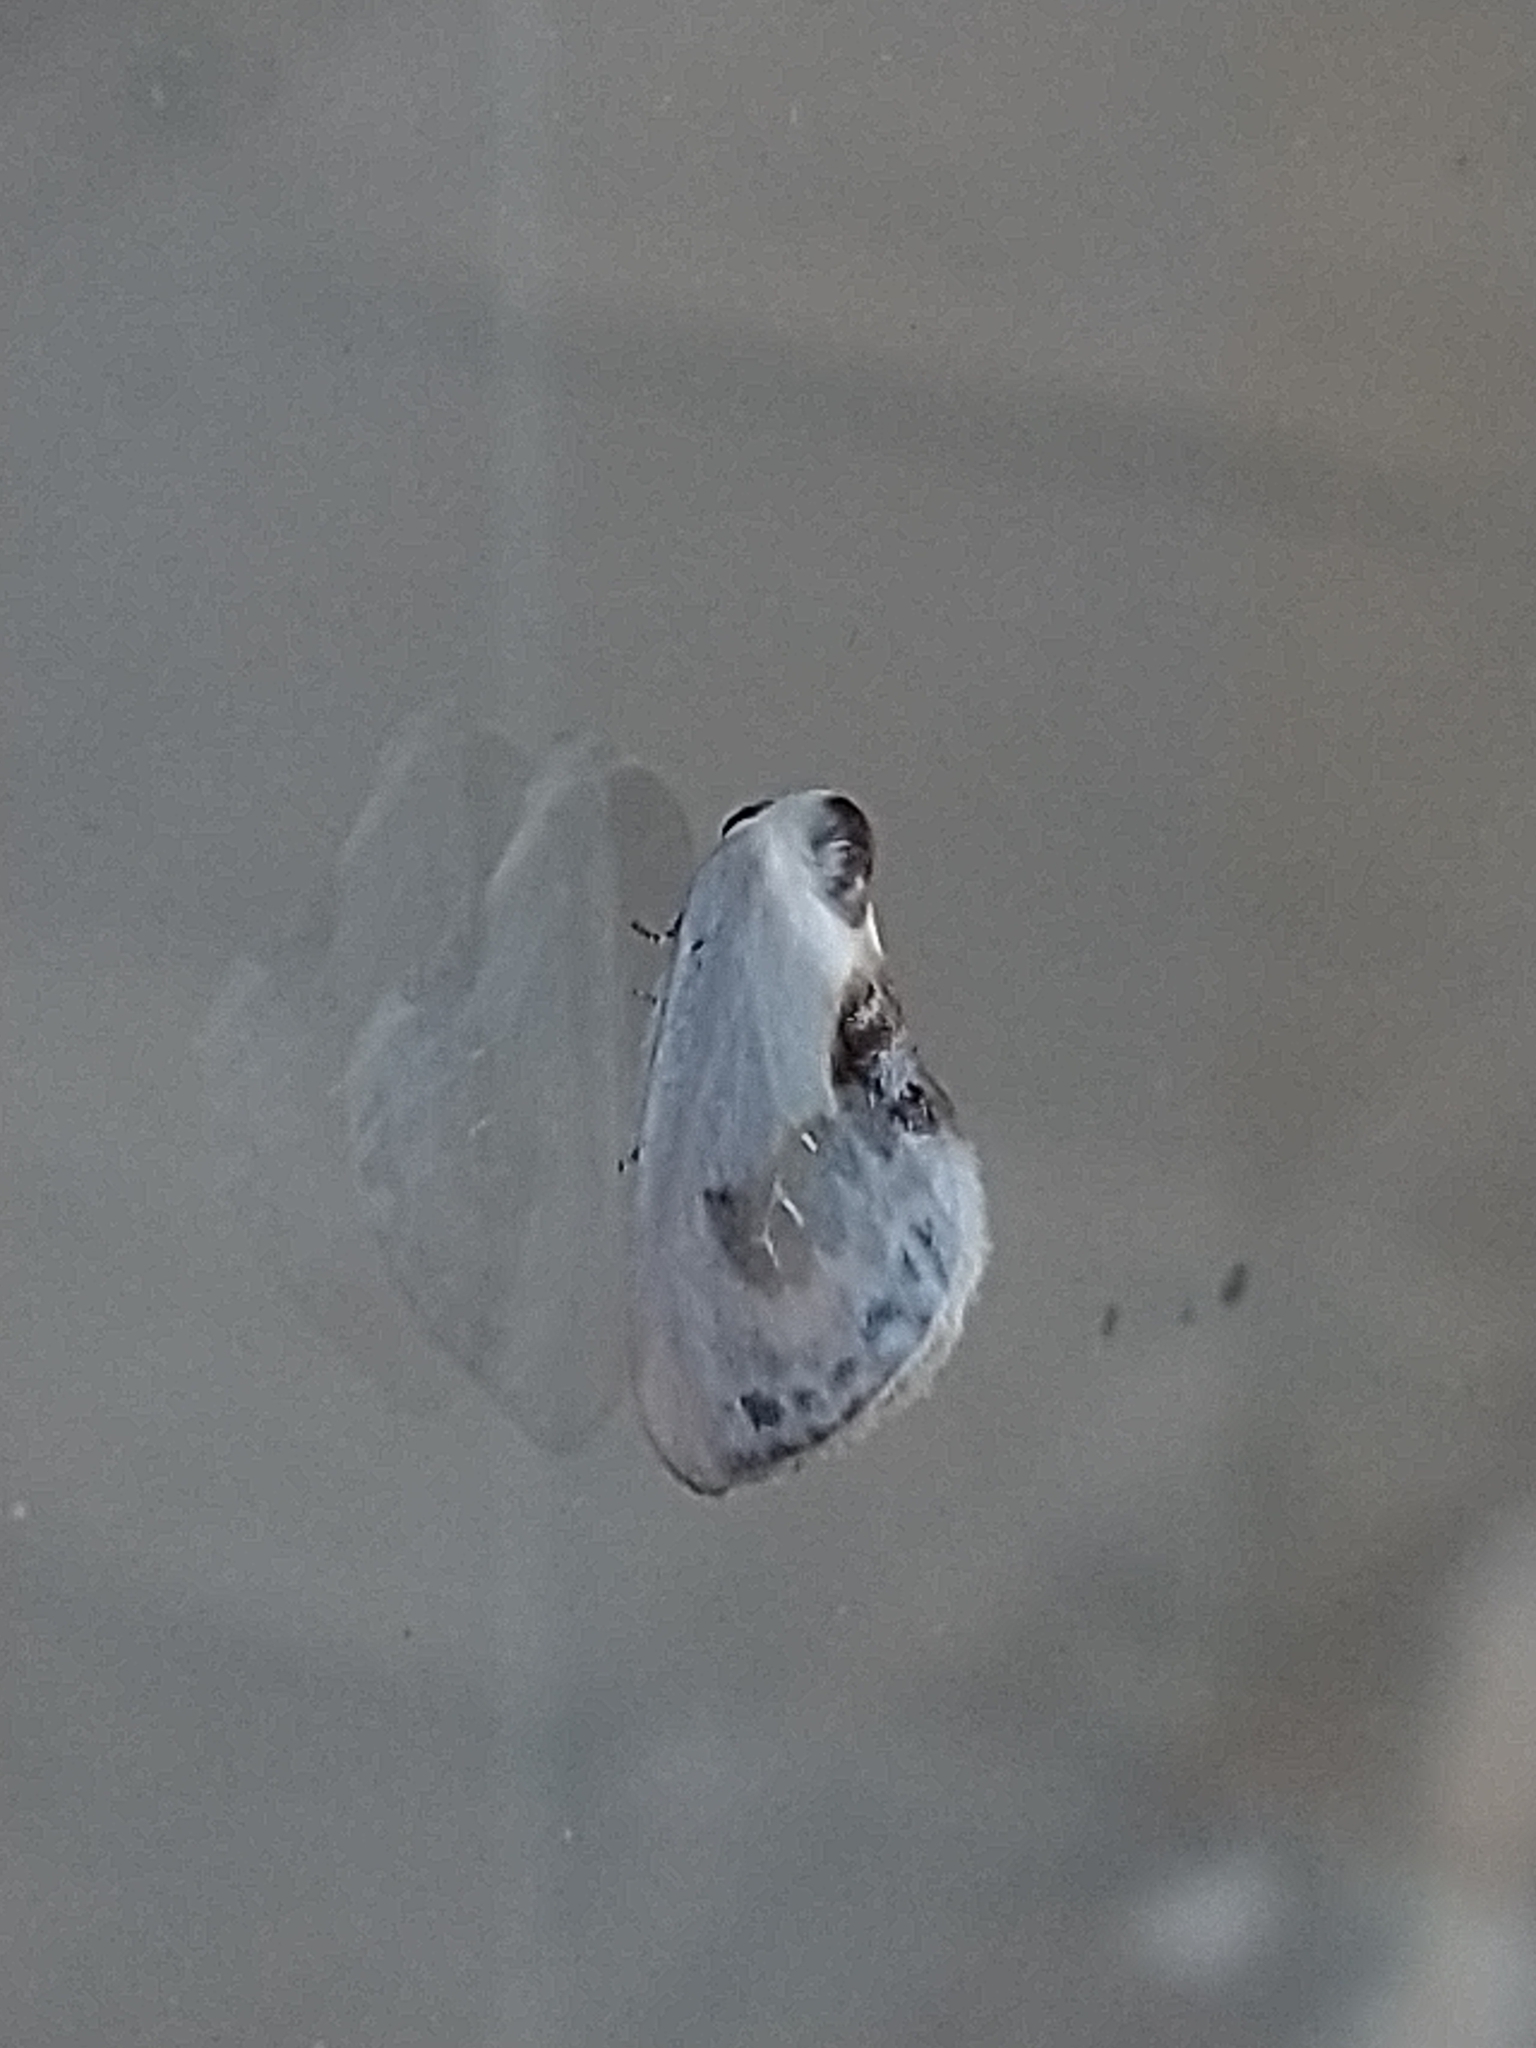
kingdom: Animalia
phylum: Arthropoda
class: Insecta
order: Lepidoptera
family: Drepanidae
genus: Cilix
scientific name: Cilix glaucata
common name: Chinese character
